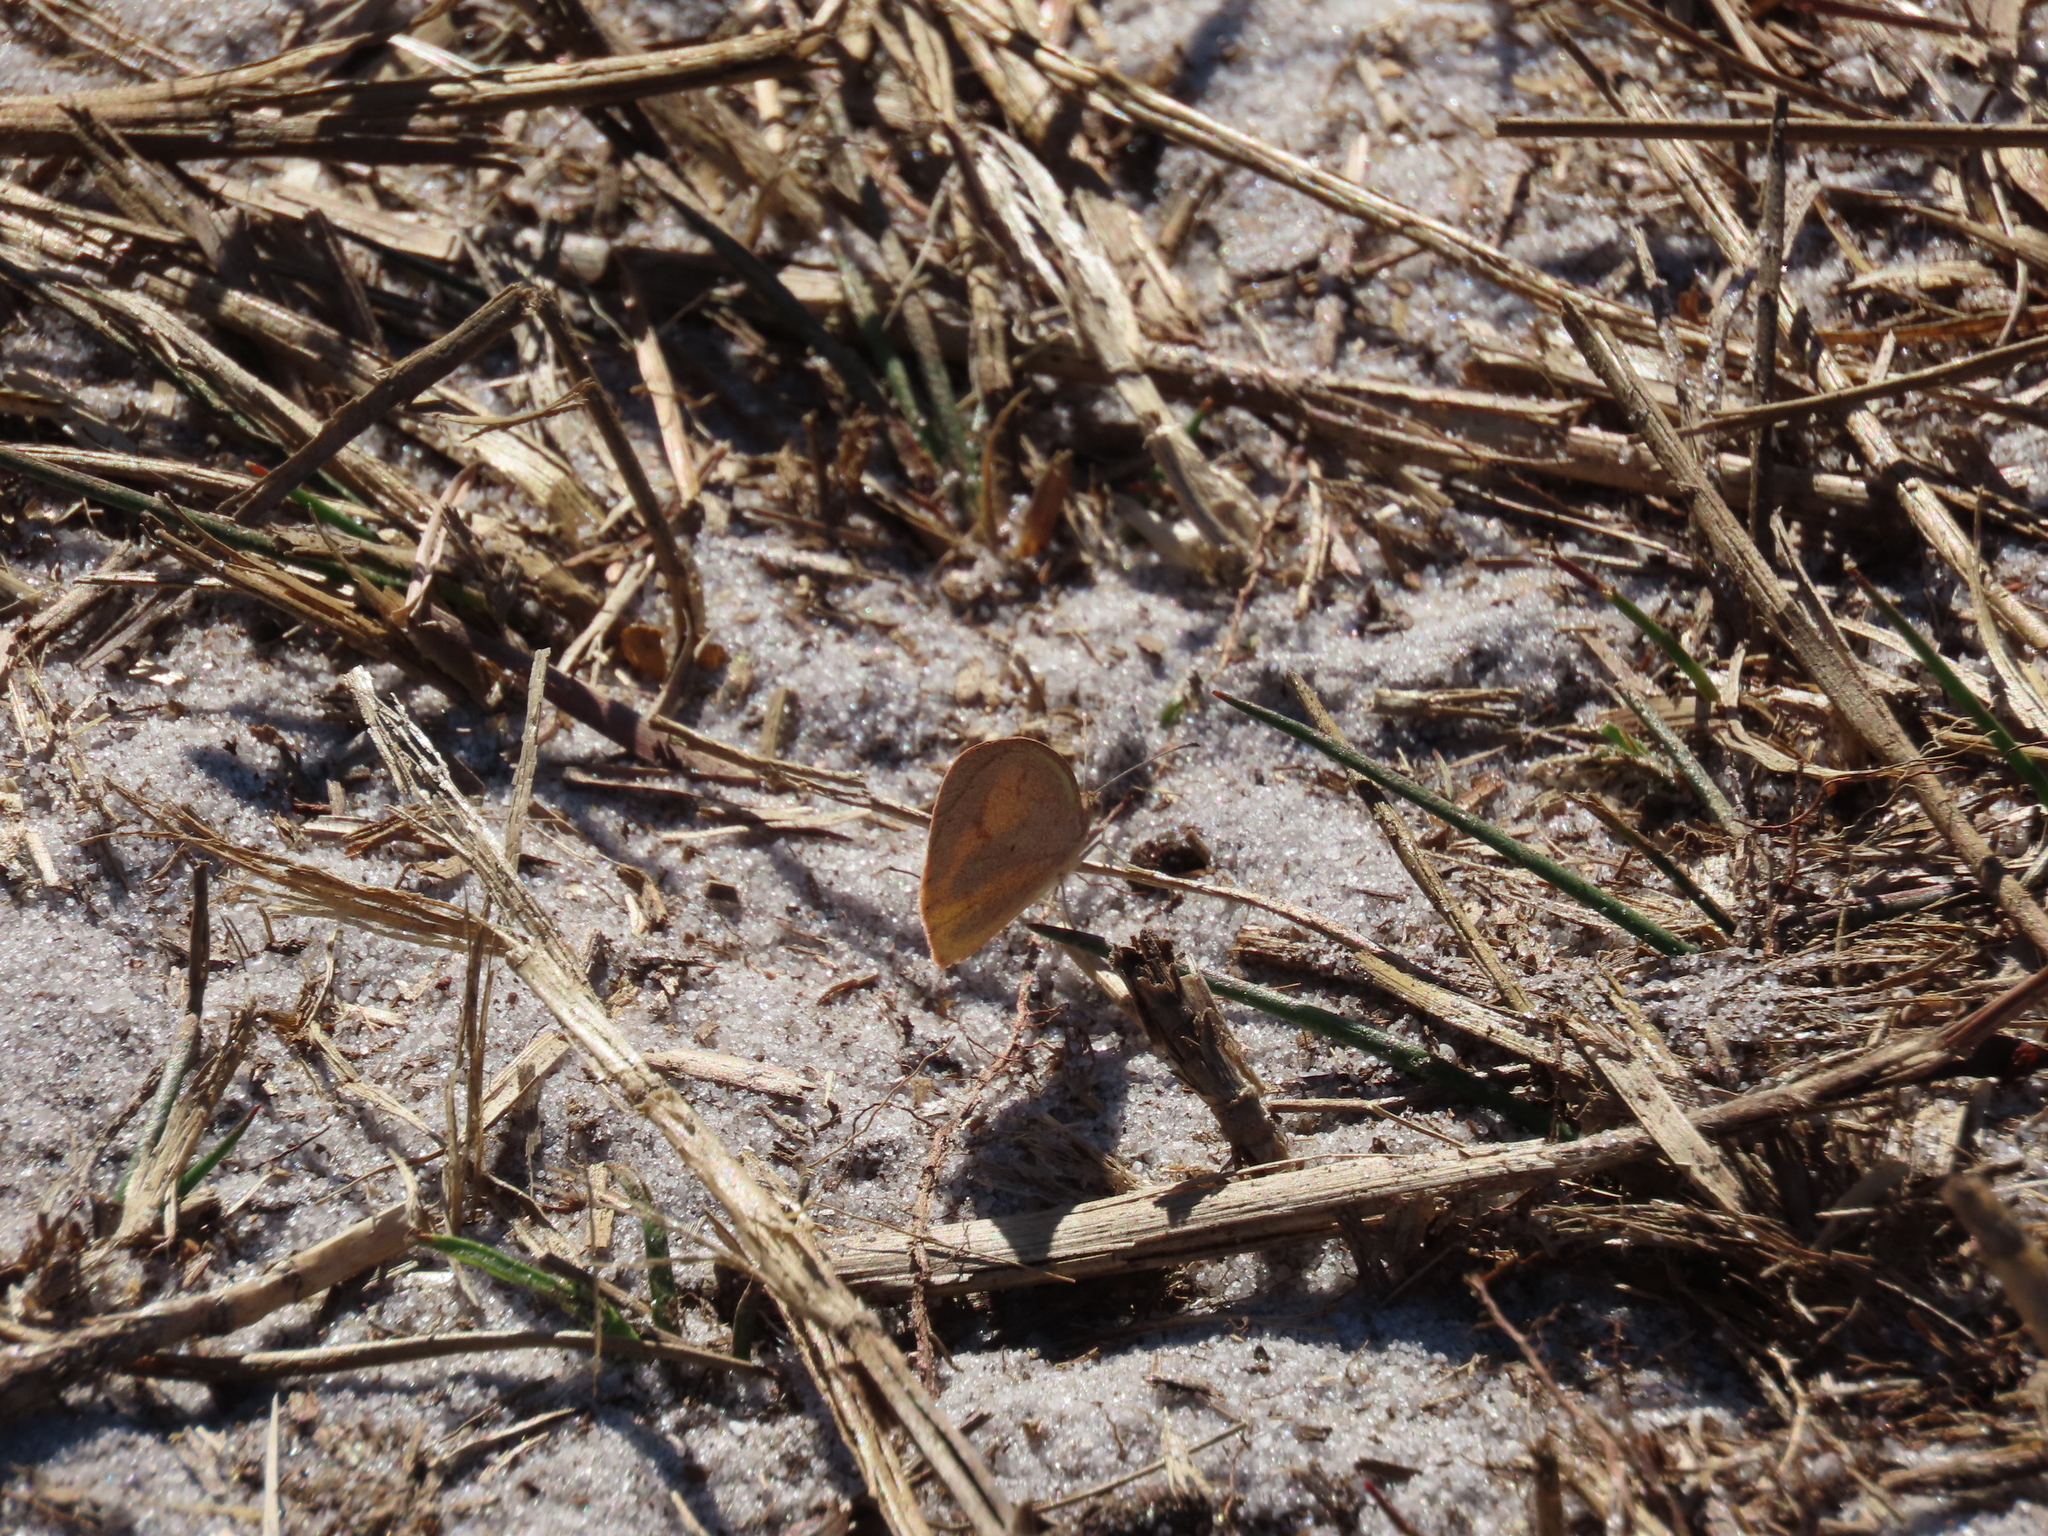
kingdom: Animalia
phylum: Arthropoda
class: Insecta
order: Lepidoptera
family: Pieridae
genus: Eurema
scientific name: Eurema daira
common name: Barred sulphur
